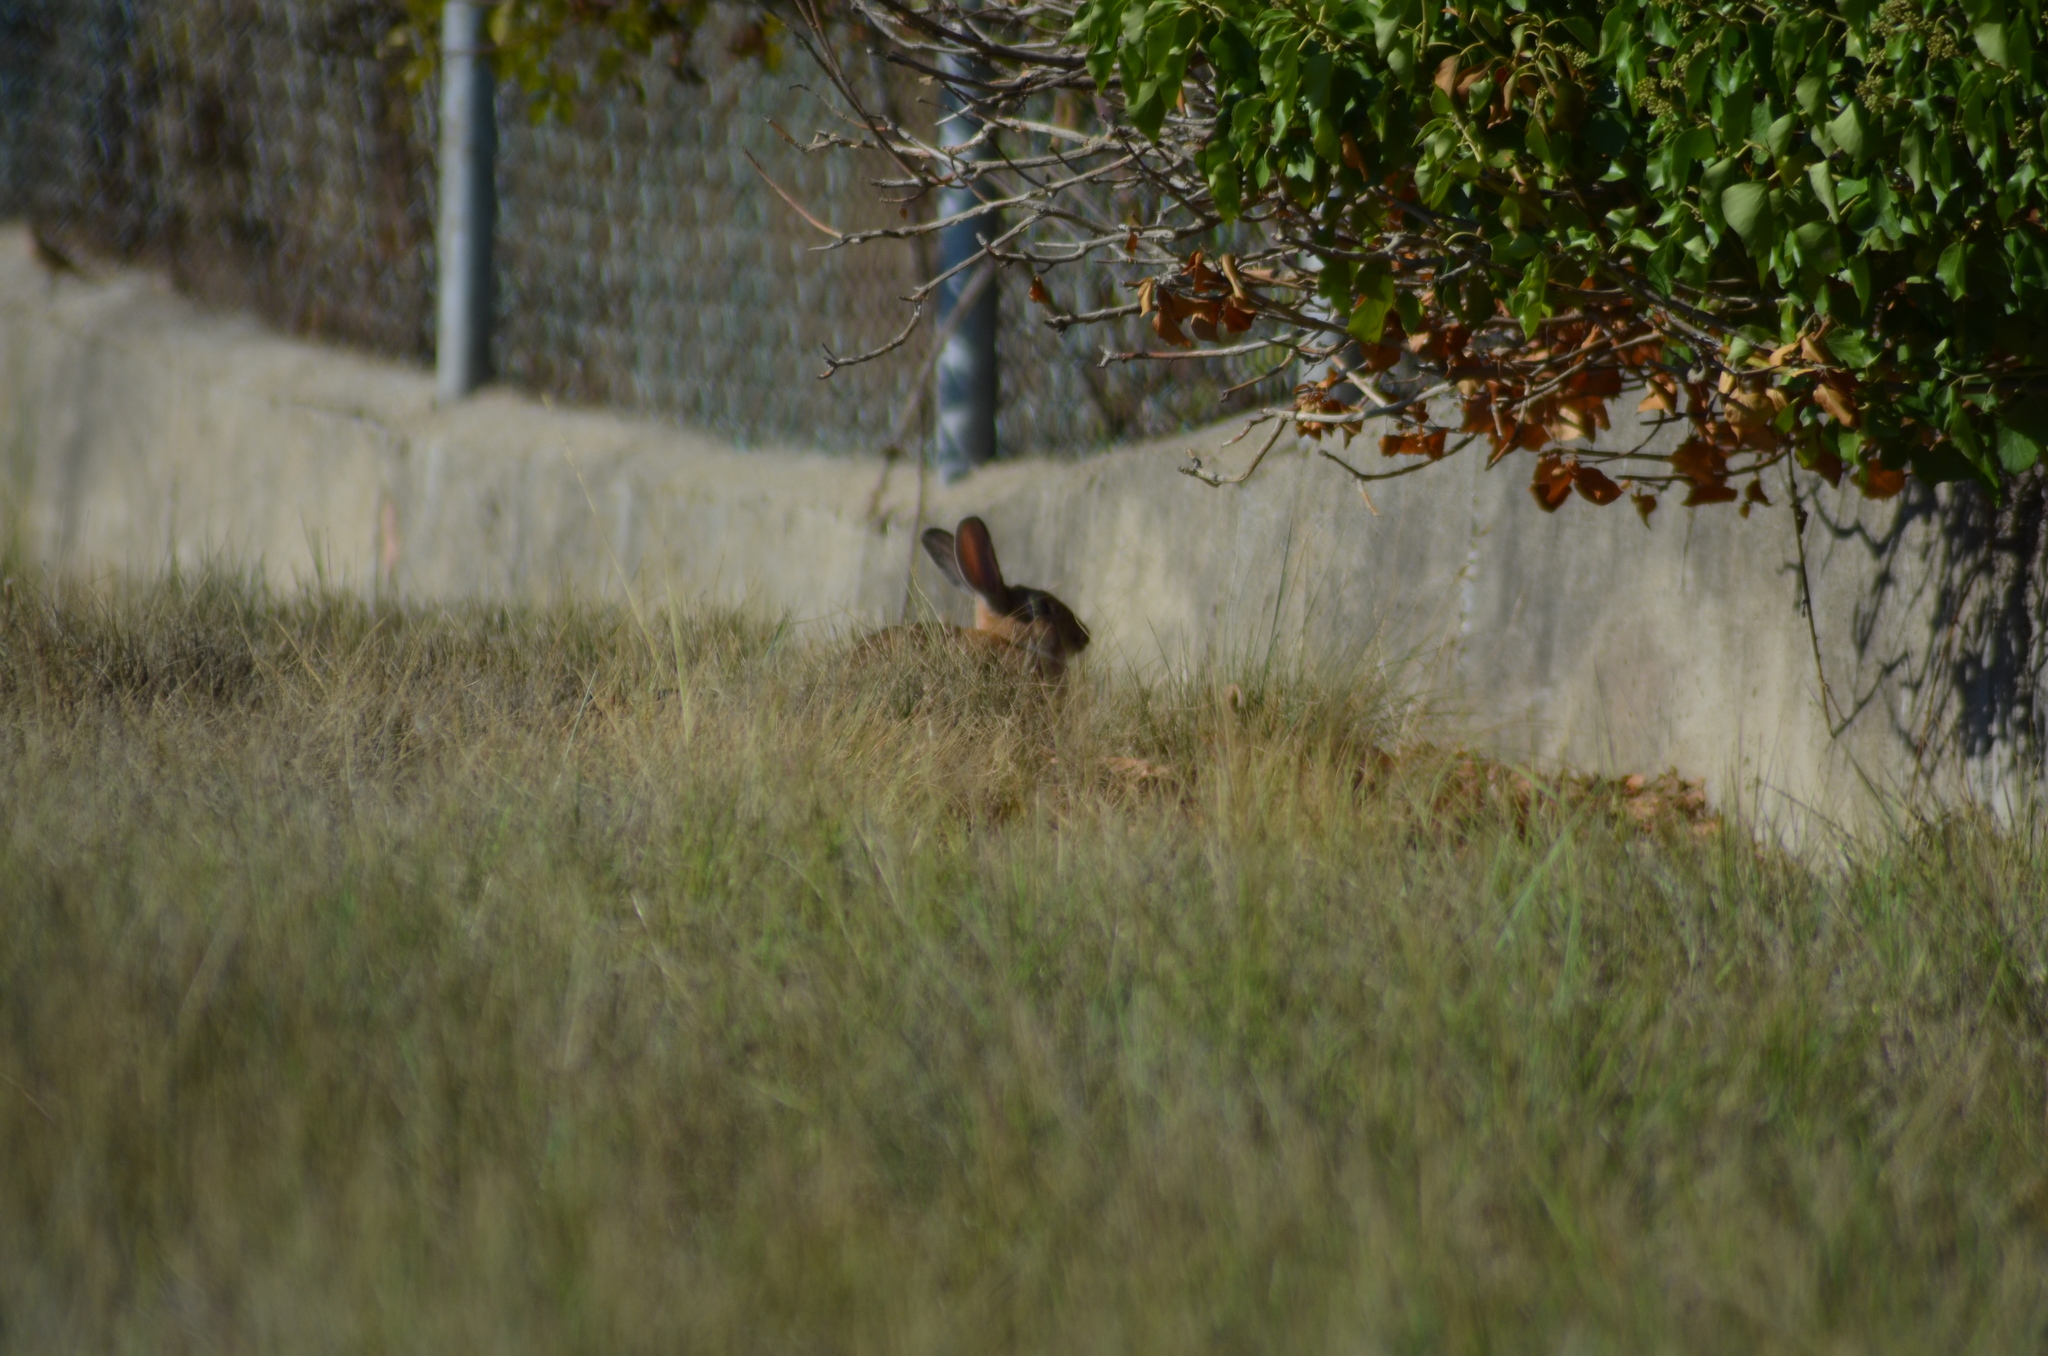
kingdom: Animalia
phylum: Chordata
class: Mammalia
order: Lagomorpha
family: Leporidae
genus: Oryctolagus
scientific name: Oryctolagus cuniculus
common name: European rabbit
